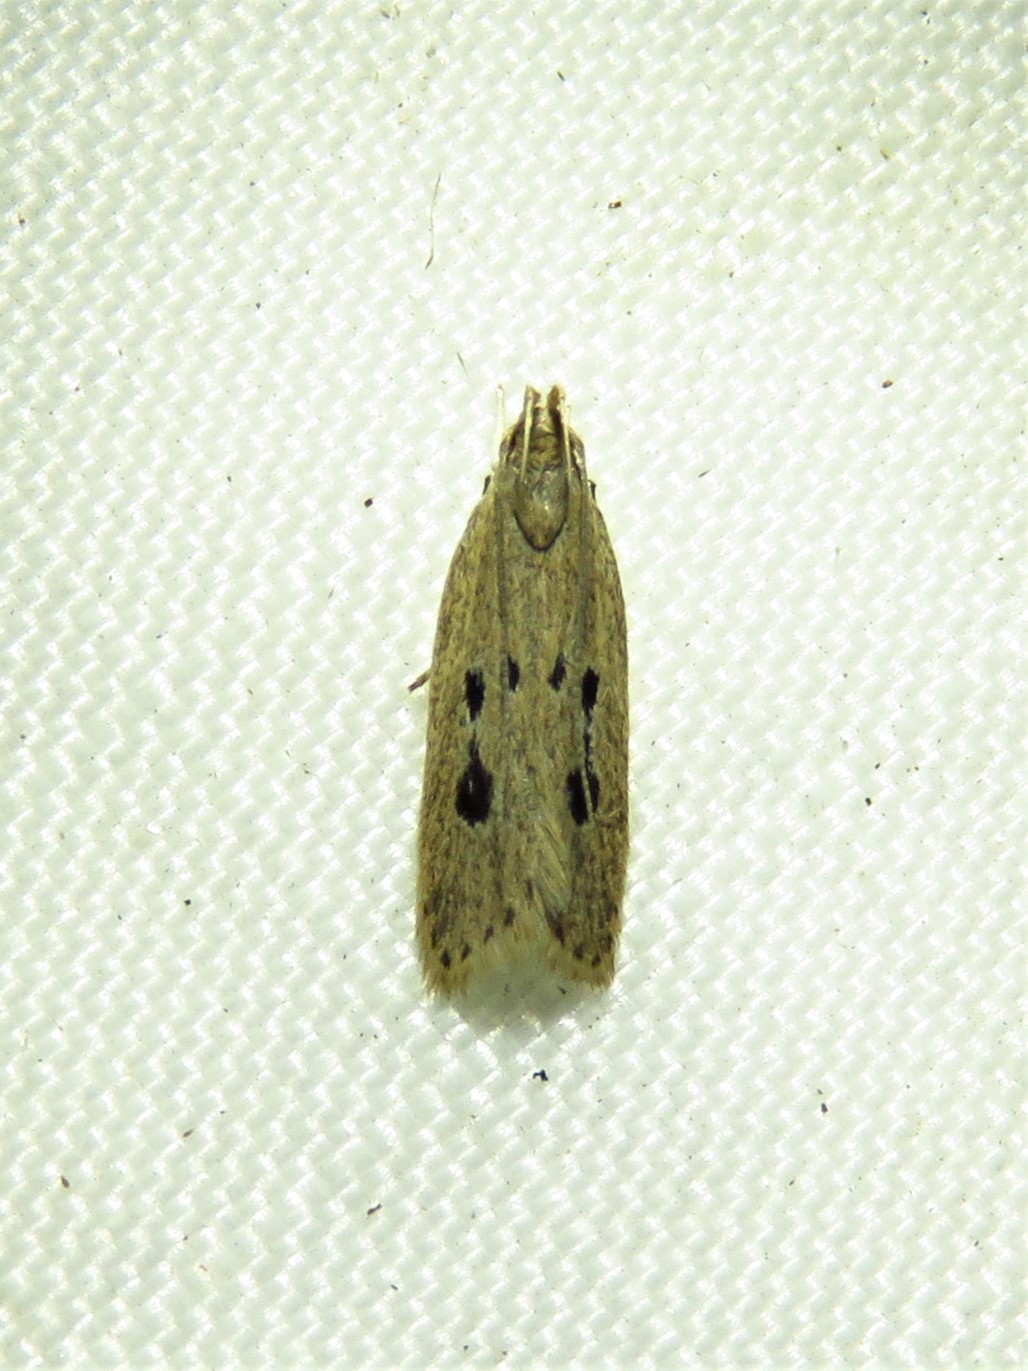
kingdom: Animalia
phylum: Arthropoda
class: Insecta
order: Lepidoptera
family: Gelechiidae
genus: Helcystogramma
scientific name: Helcystogramma melanocarpa
